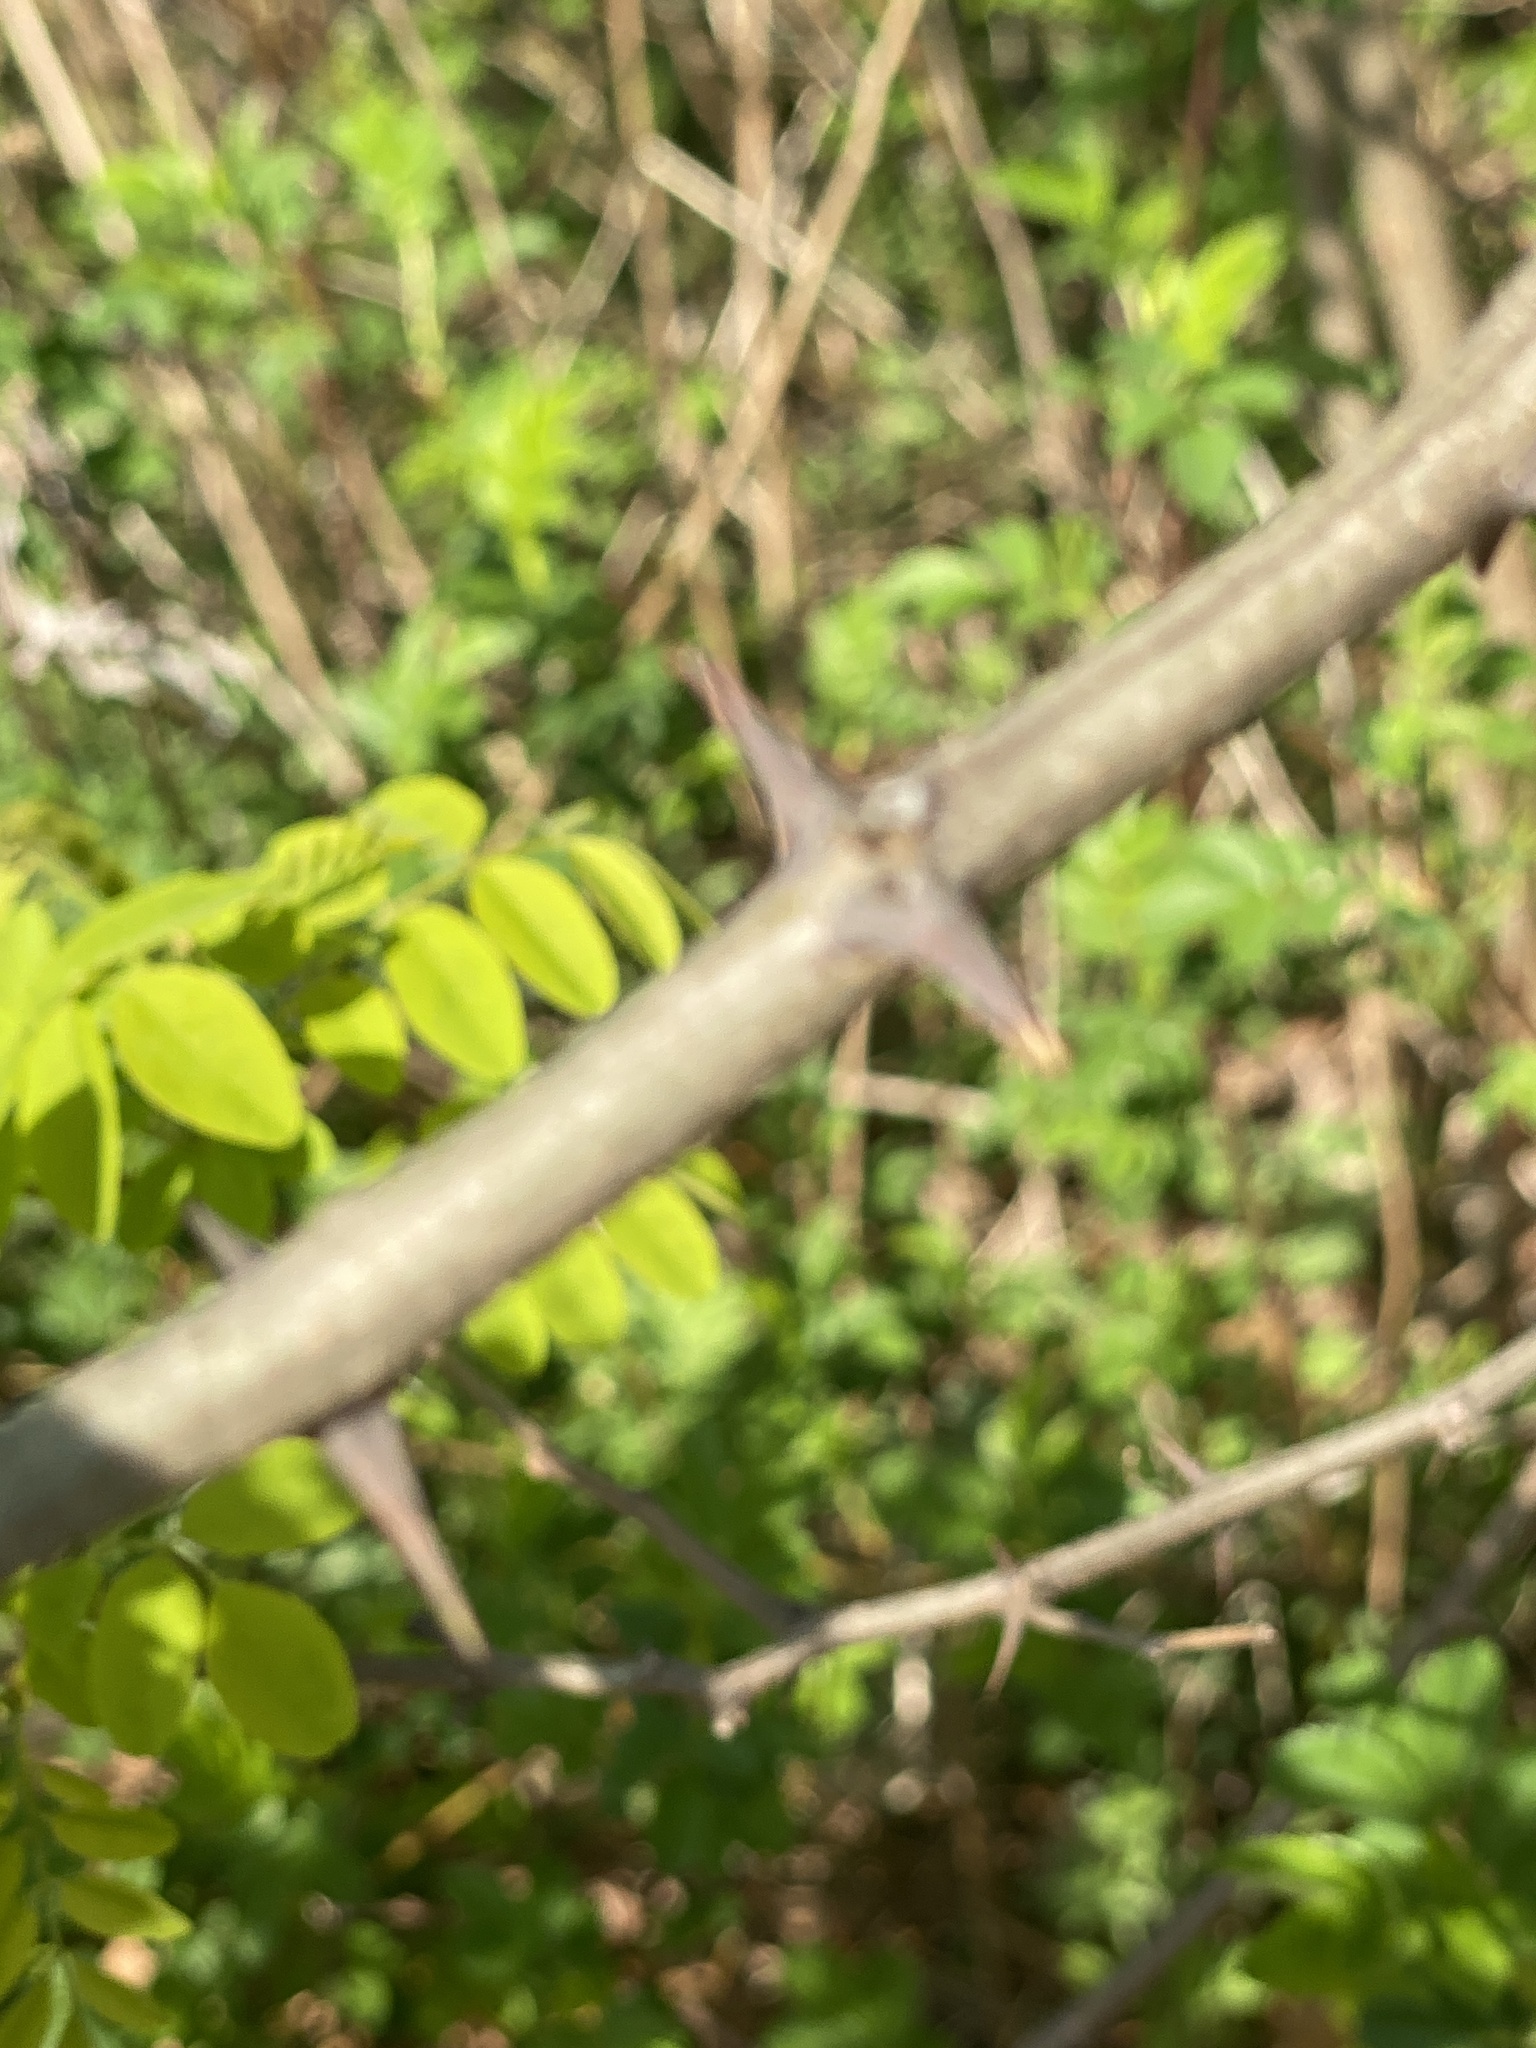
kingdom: Plantae
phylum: Tracheophyta
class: Magnoliopsida
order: Fabales
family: Fabaceae
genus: Robinia
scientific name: Robinia pseudoacacia
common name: Black locust
